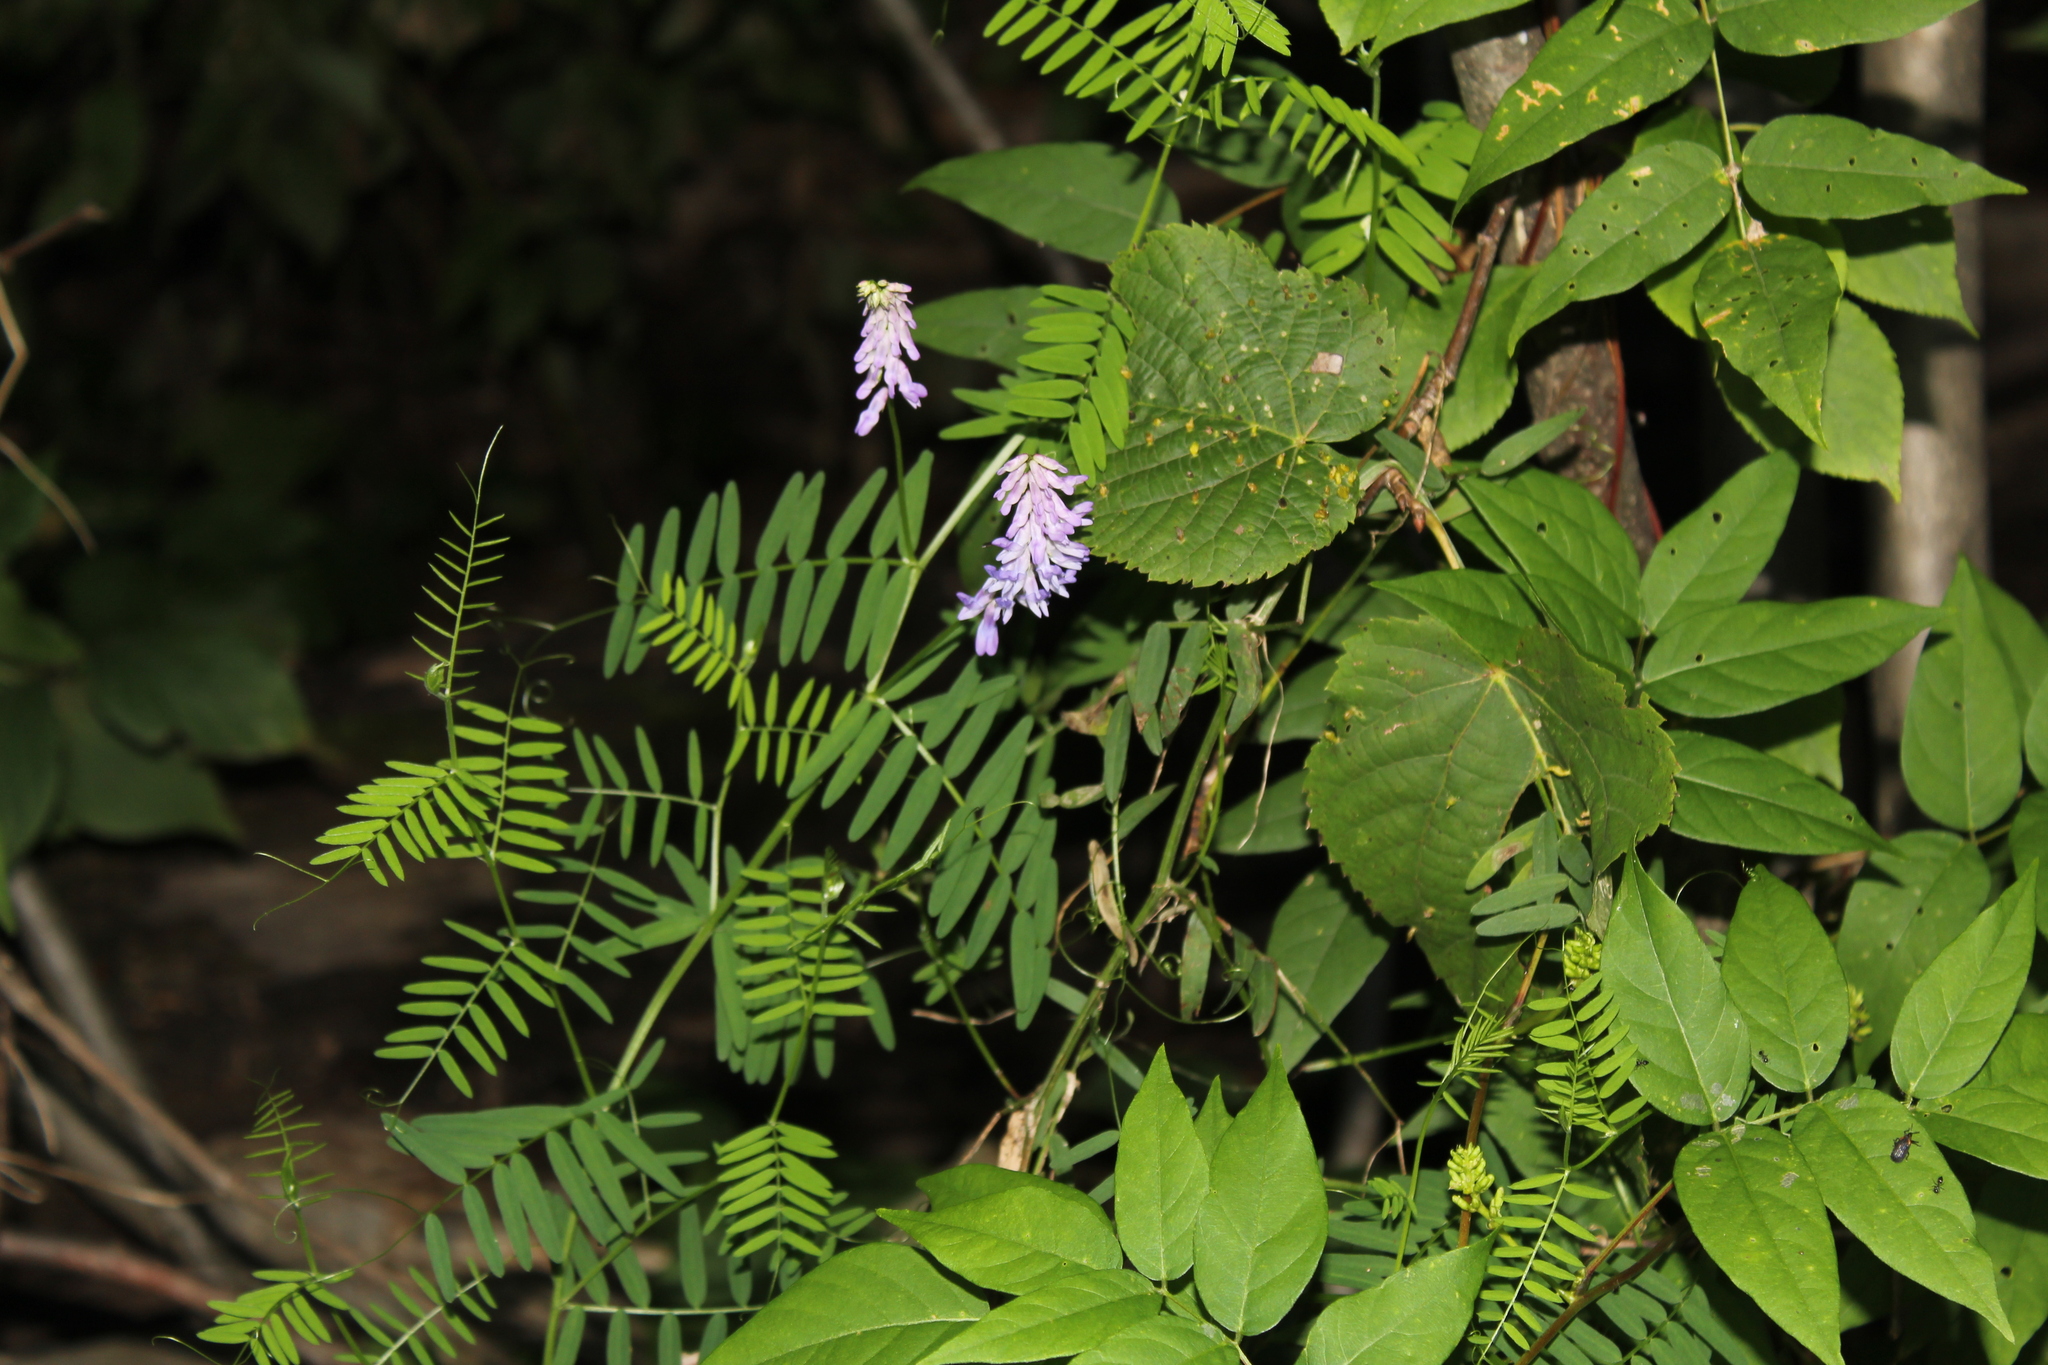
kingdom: Plantae
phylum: Tracheophyta
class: Magnoliopsida
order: Fabales
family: Fabaceae
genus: Vicia
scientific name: Vicia cracca
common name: Bird vetch
